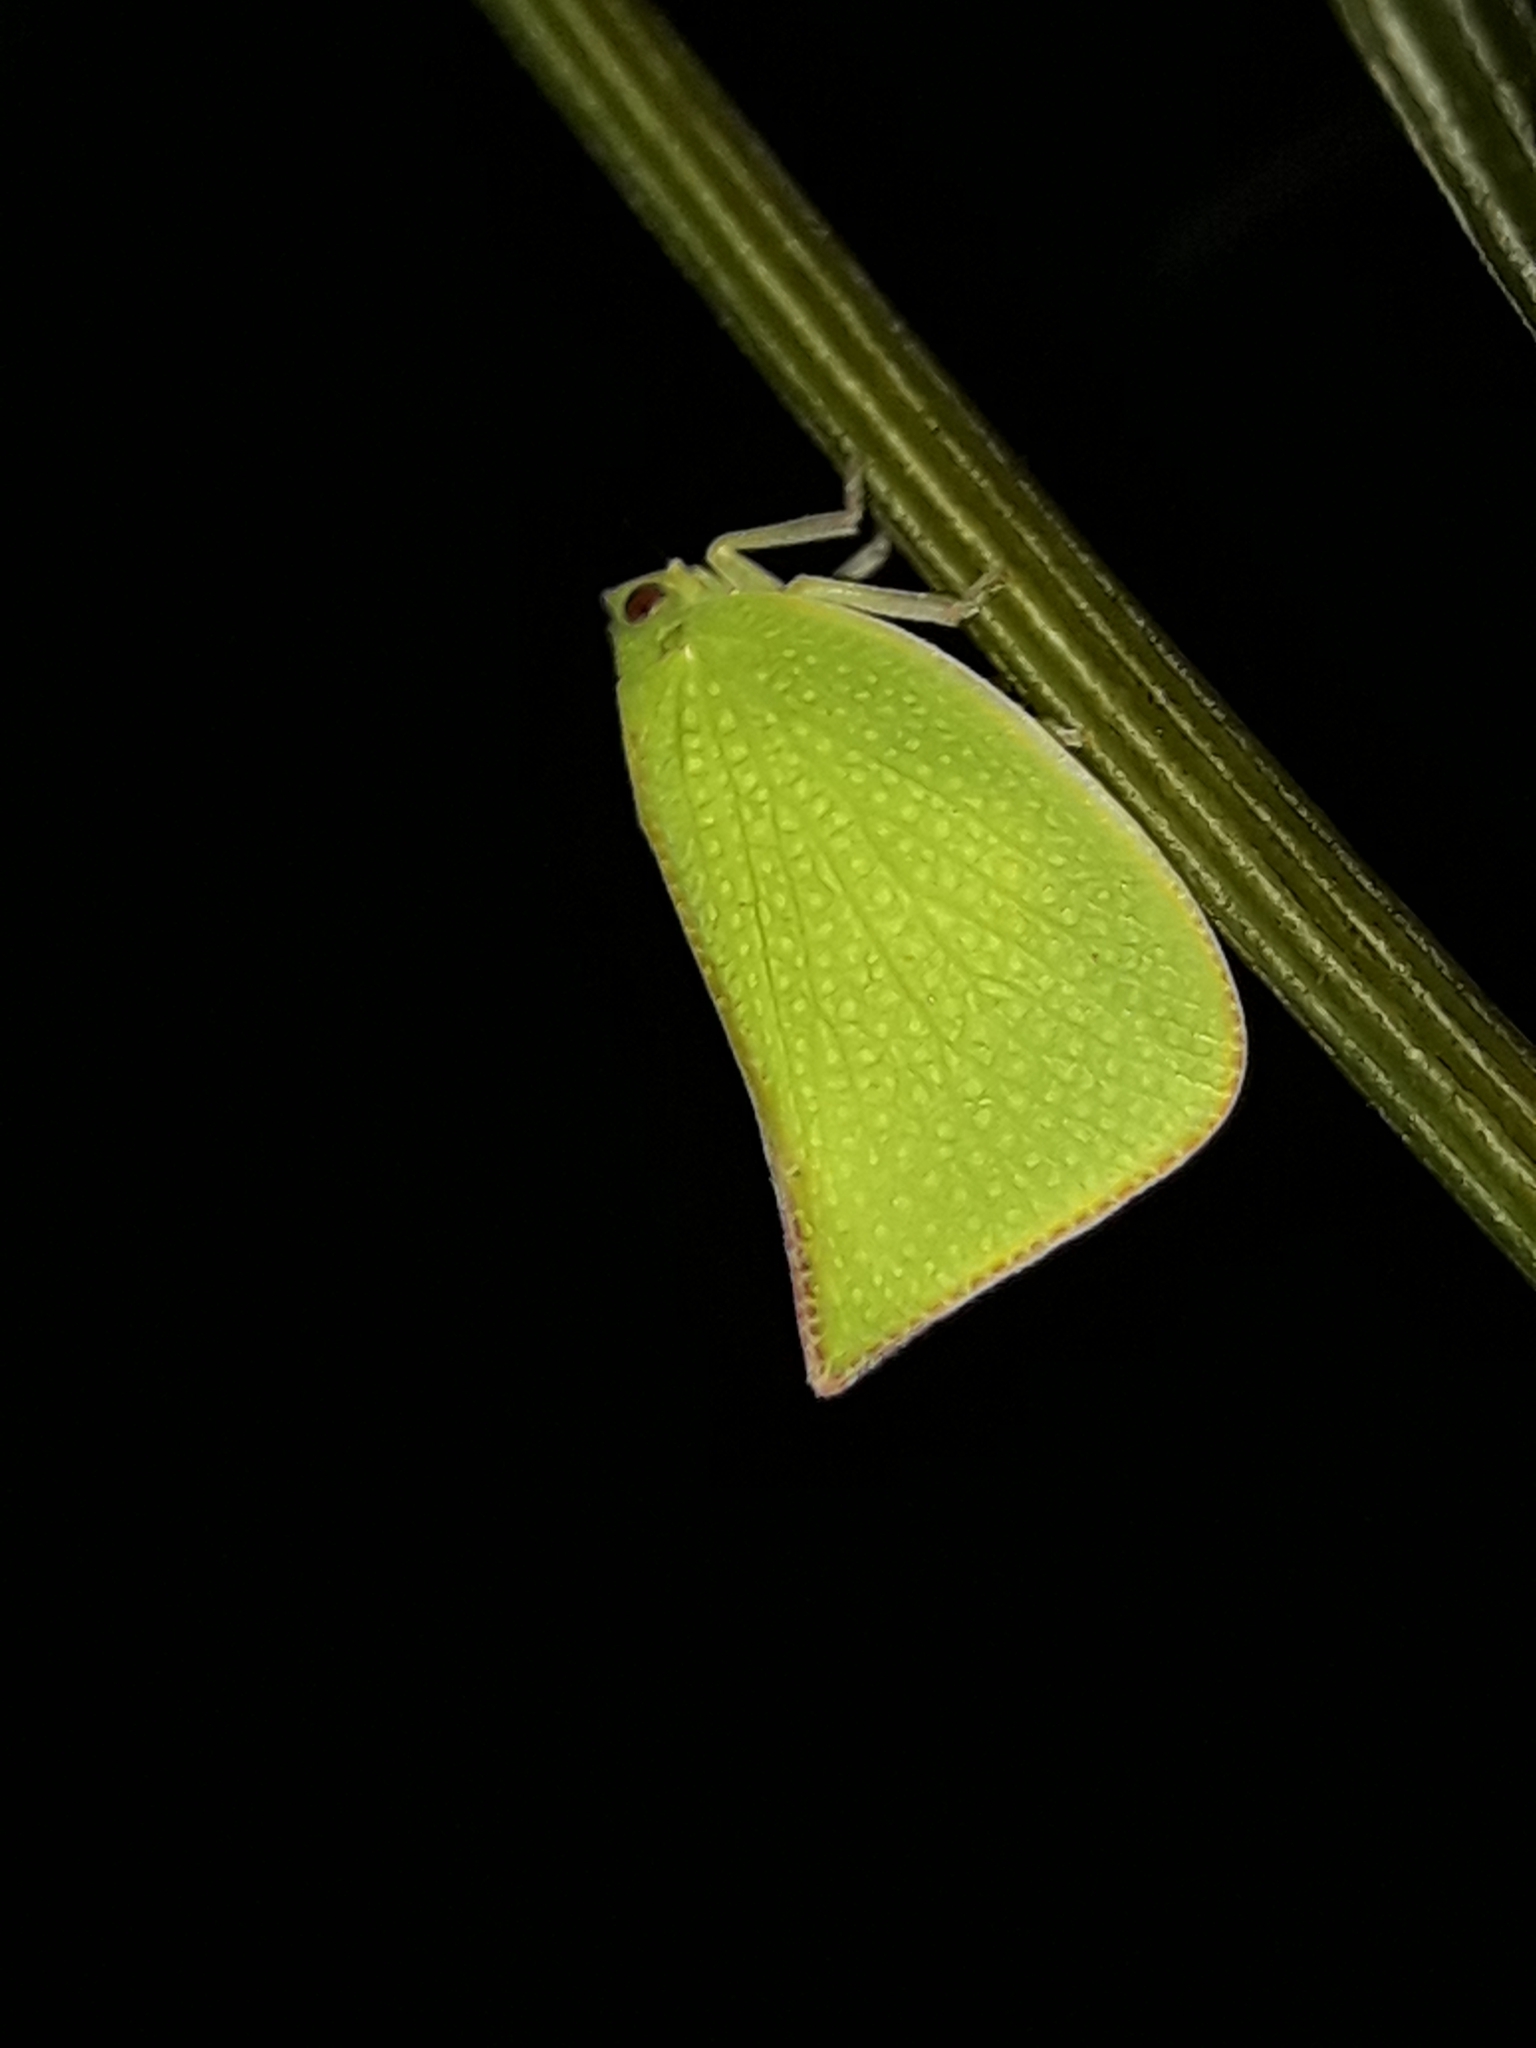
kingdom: Animalia
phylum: Arthropoda
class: Insecta
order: Hemiptera
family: Flatidae
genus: Siphanta
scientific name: Siphanta acuta
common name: Torpedo bug
